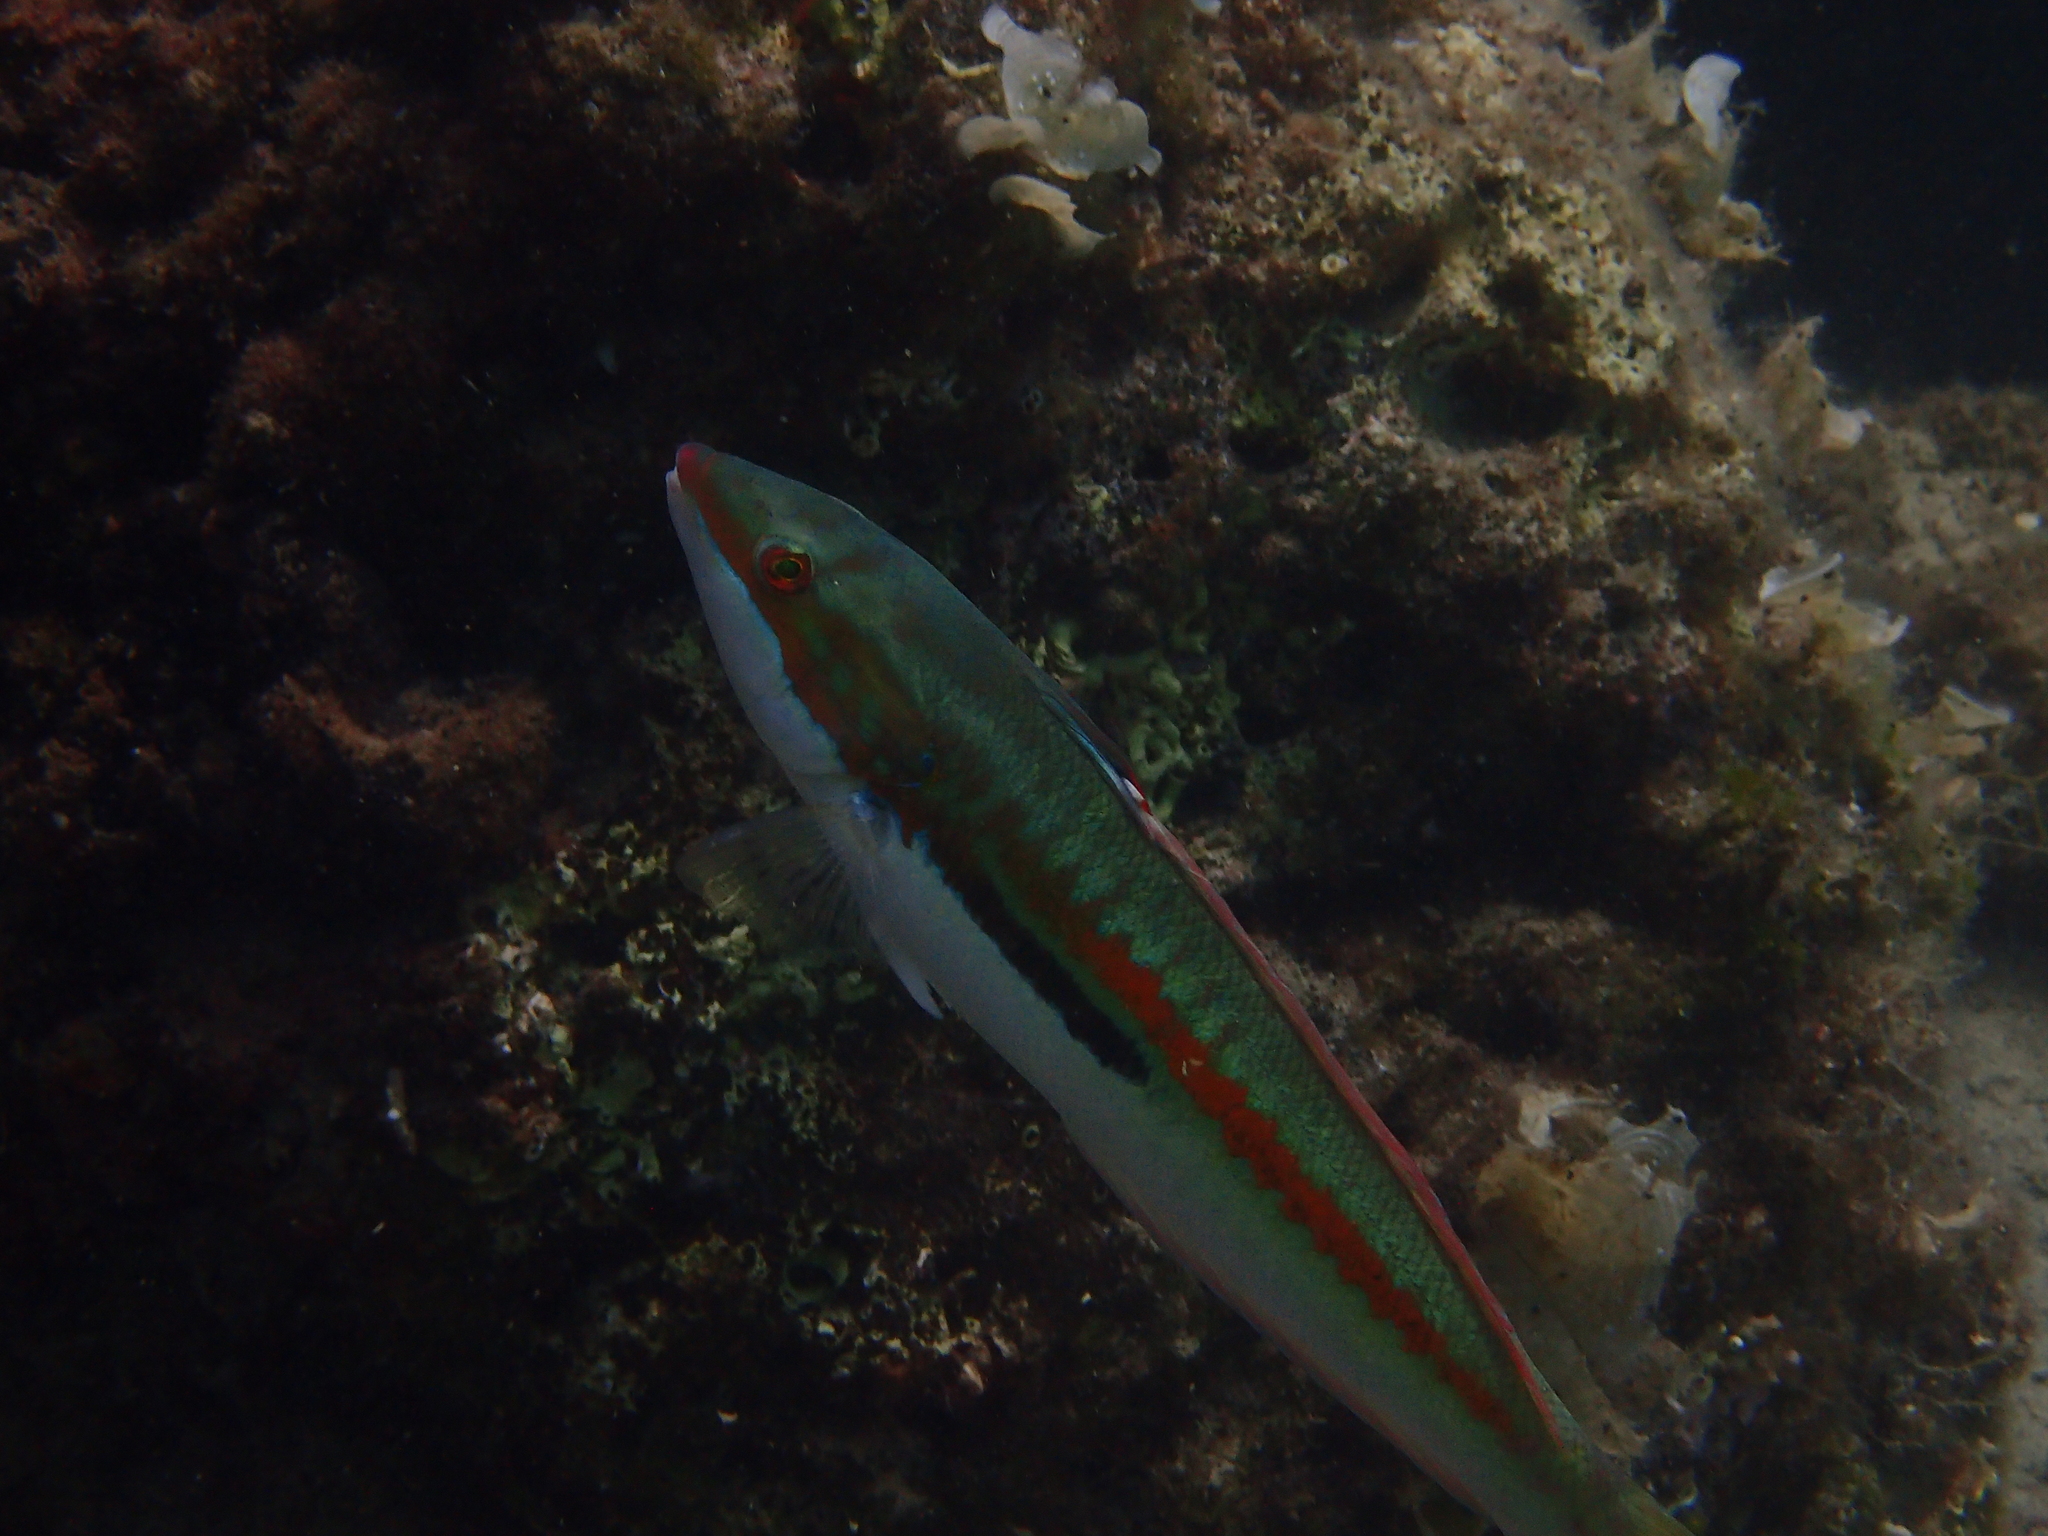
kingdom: Animalia
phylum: Chordata
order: Perciformes
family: Labridae
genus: Coris
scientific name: Coris julis
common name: Rainbow wrasse
